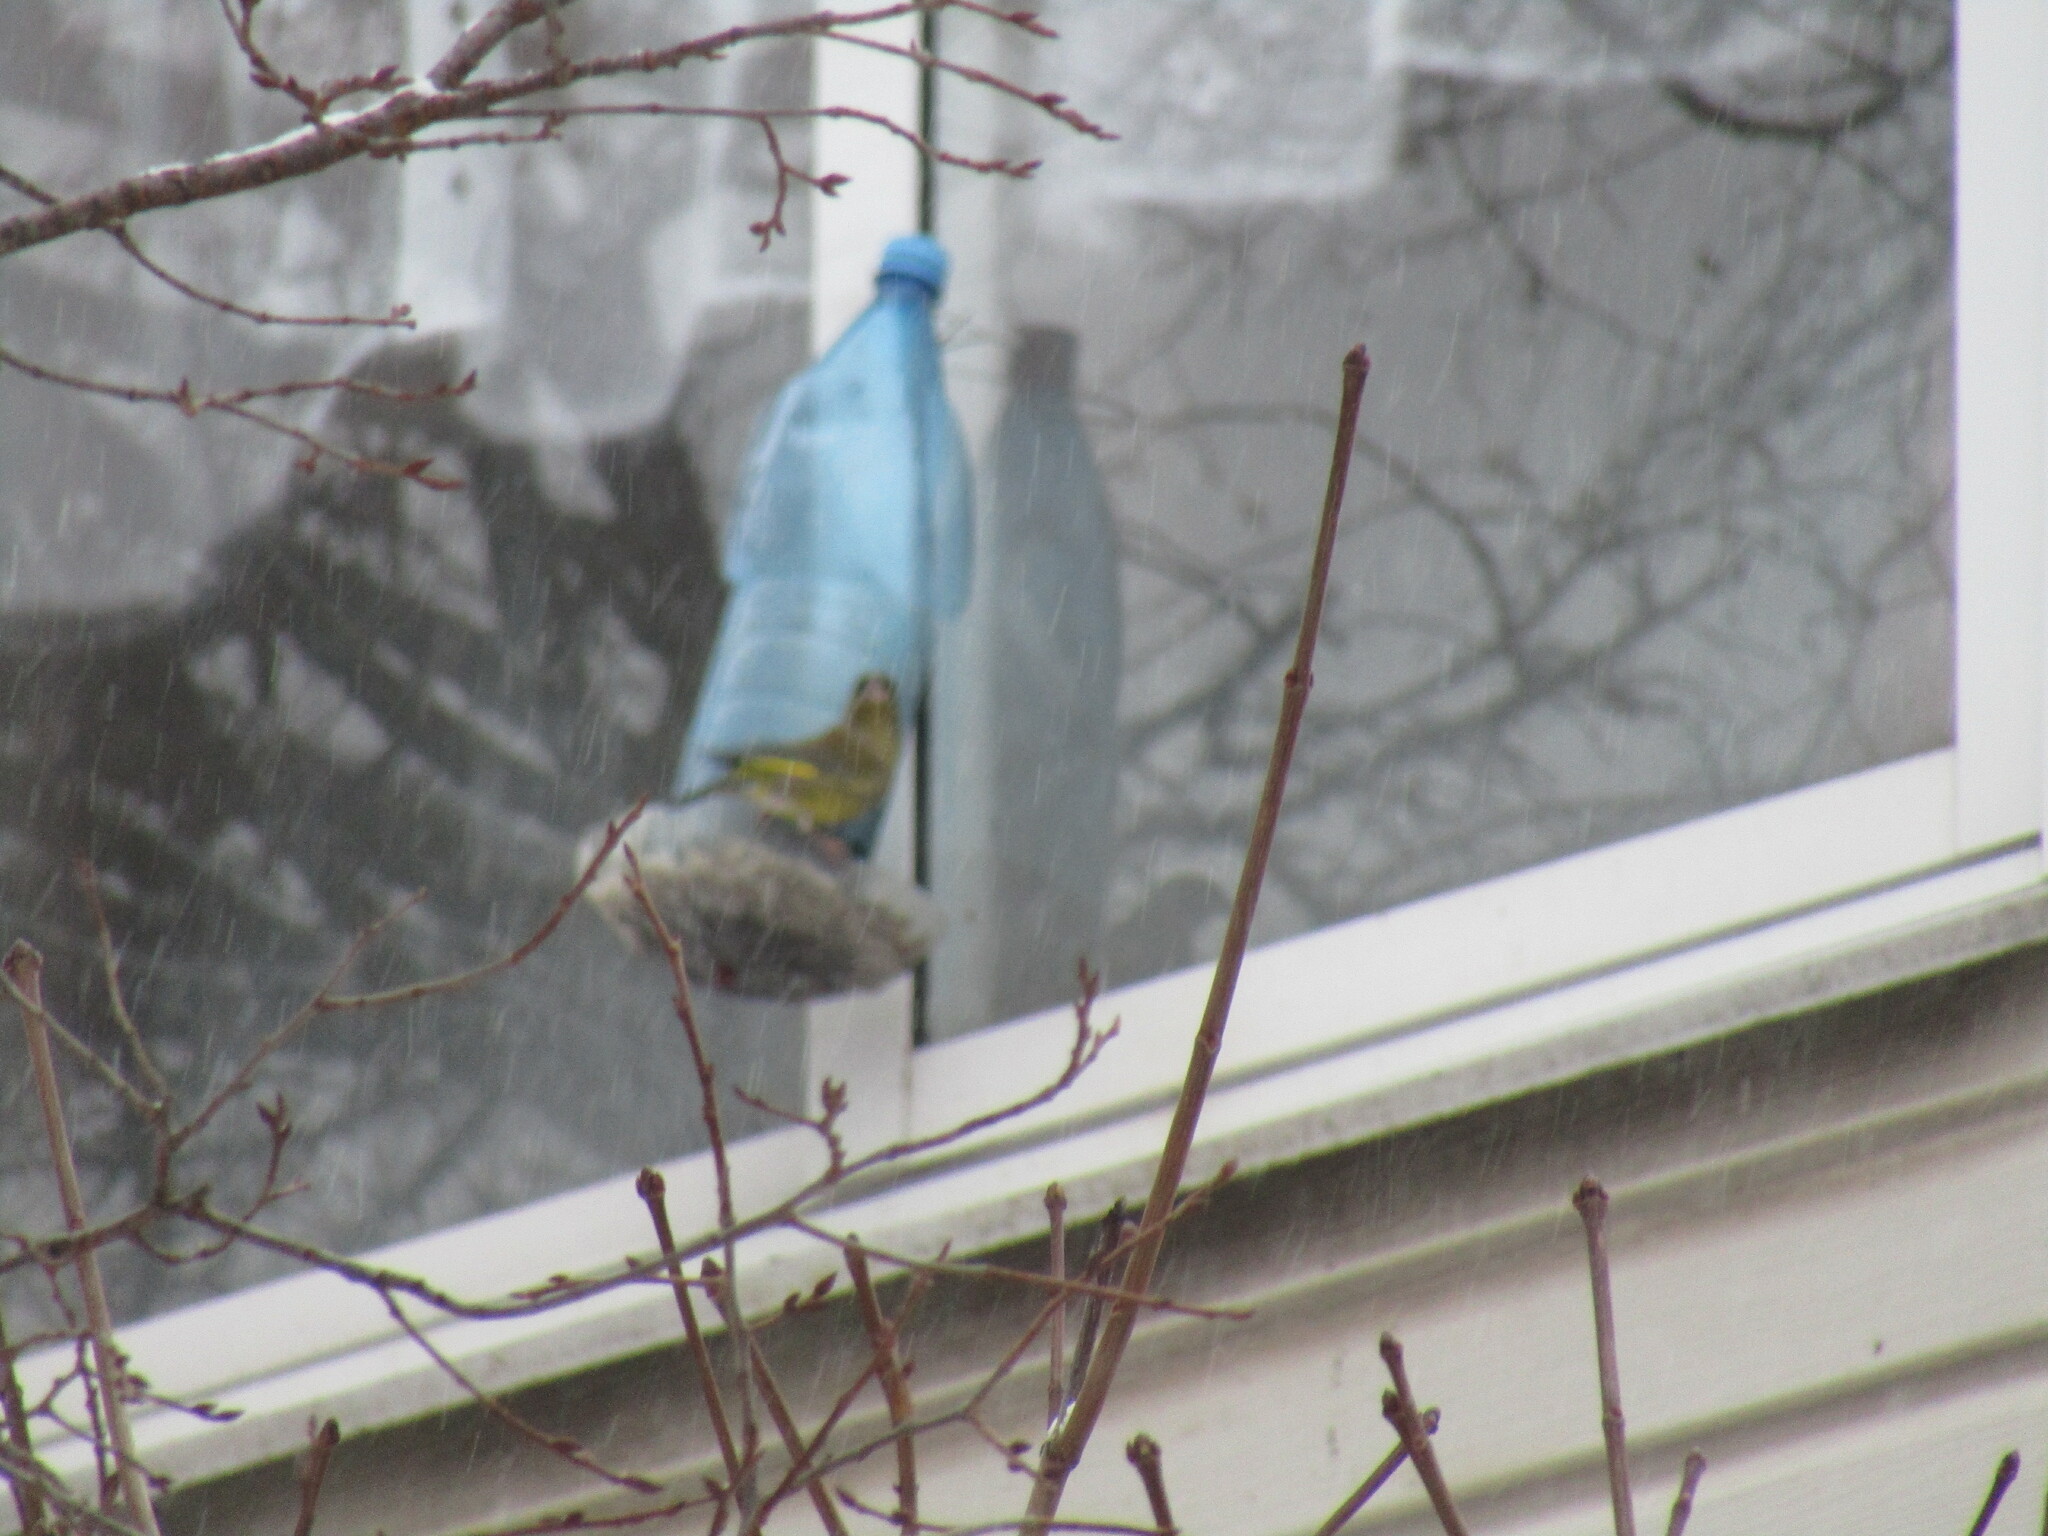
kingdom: Plantae
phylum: Tracheophyta
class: Liliopsida
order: Poales
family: Poaceae
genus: Chloris
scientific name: Chloris chloris
